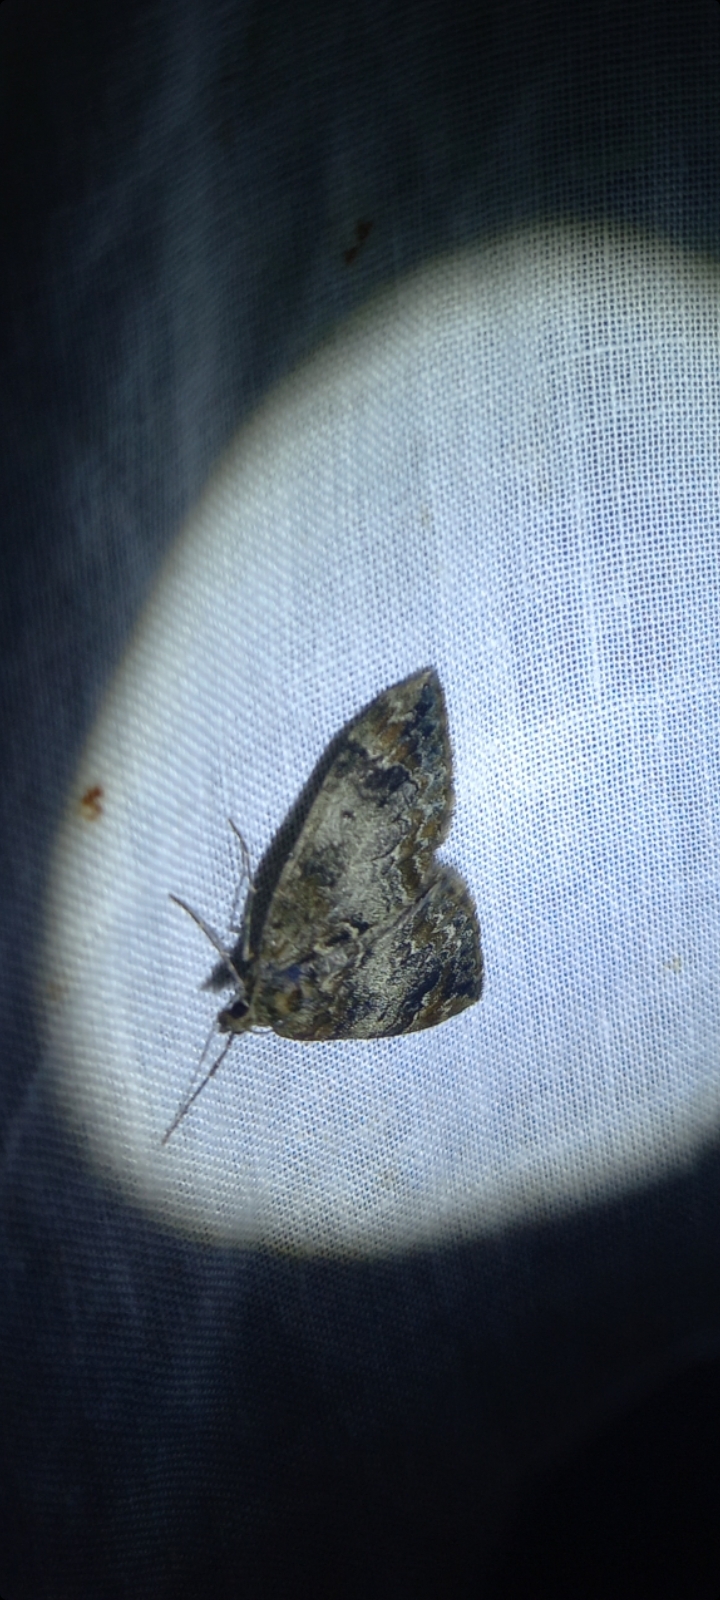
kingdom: Animalia
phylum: Arthropoda
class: Insecta
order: Lepidoptera
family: Geometridae
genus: Dysstroma
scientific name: Dysstroma truncata
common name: Common marbled carpet
